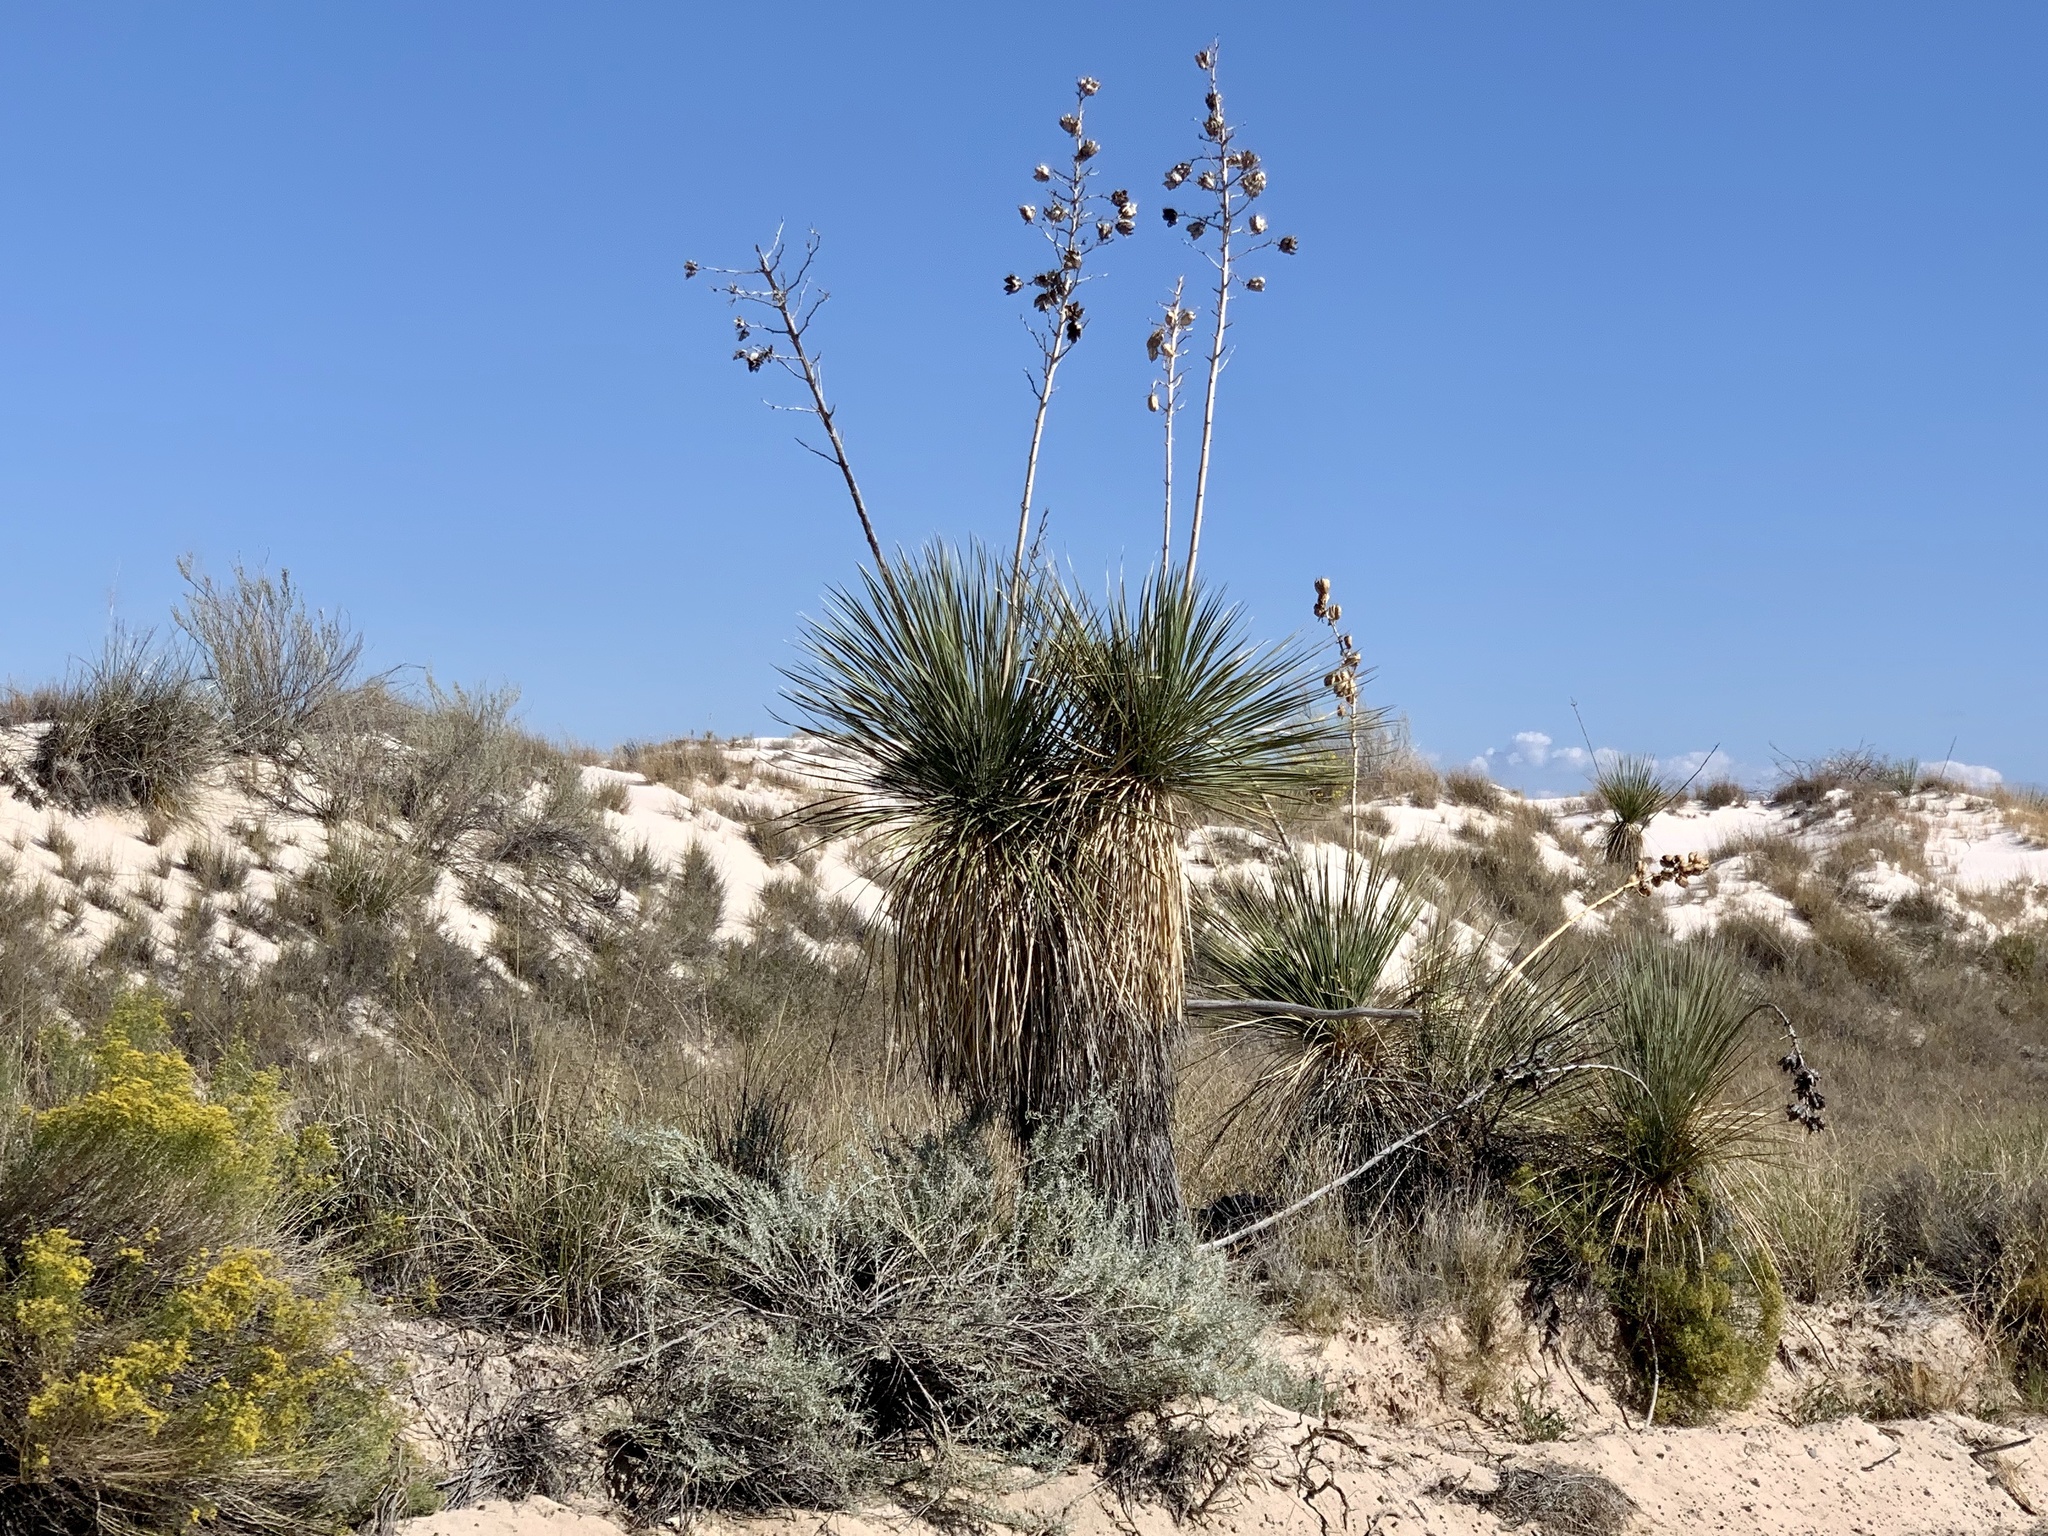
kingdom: Plantae
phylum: Tracheophyta
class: Liliopsida
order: Asparagales
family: Asparagaceae
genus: Yucca
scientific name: Yucca elata
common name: Palmella
